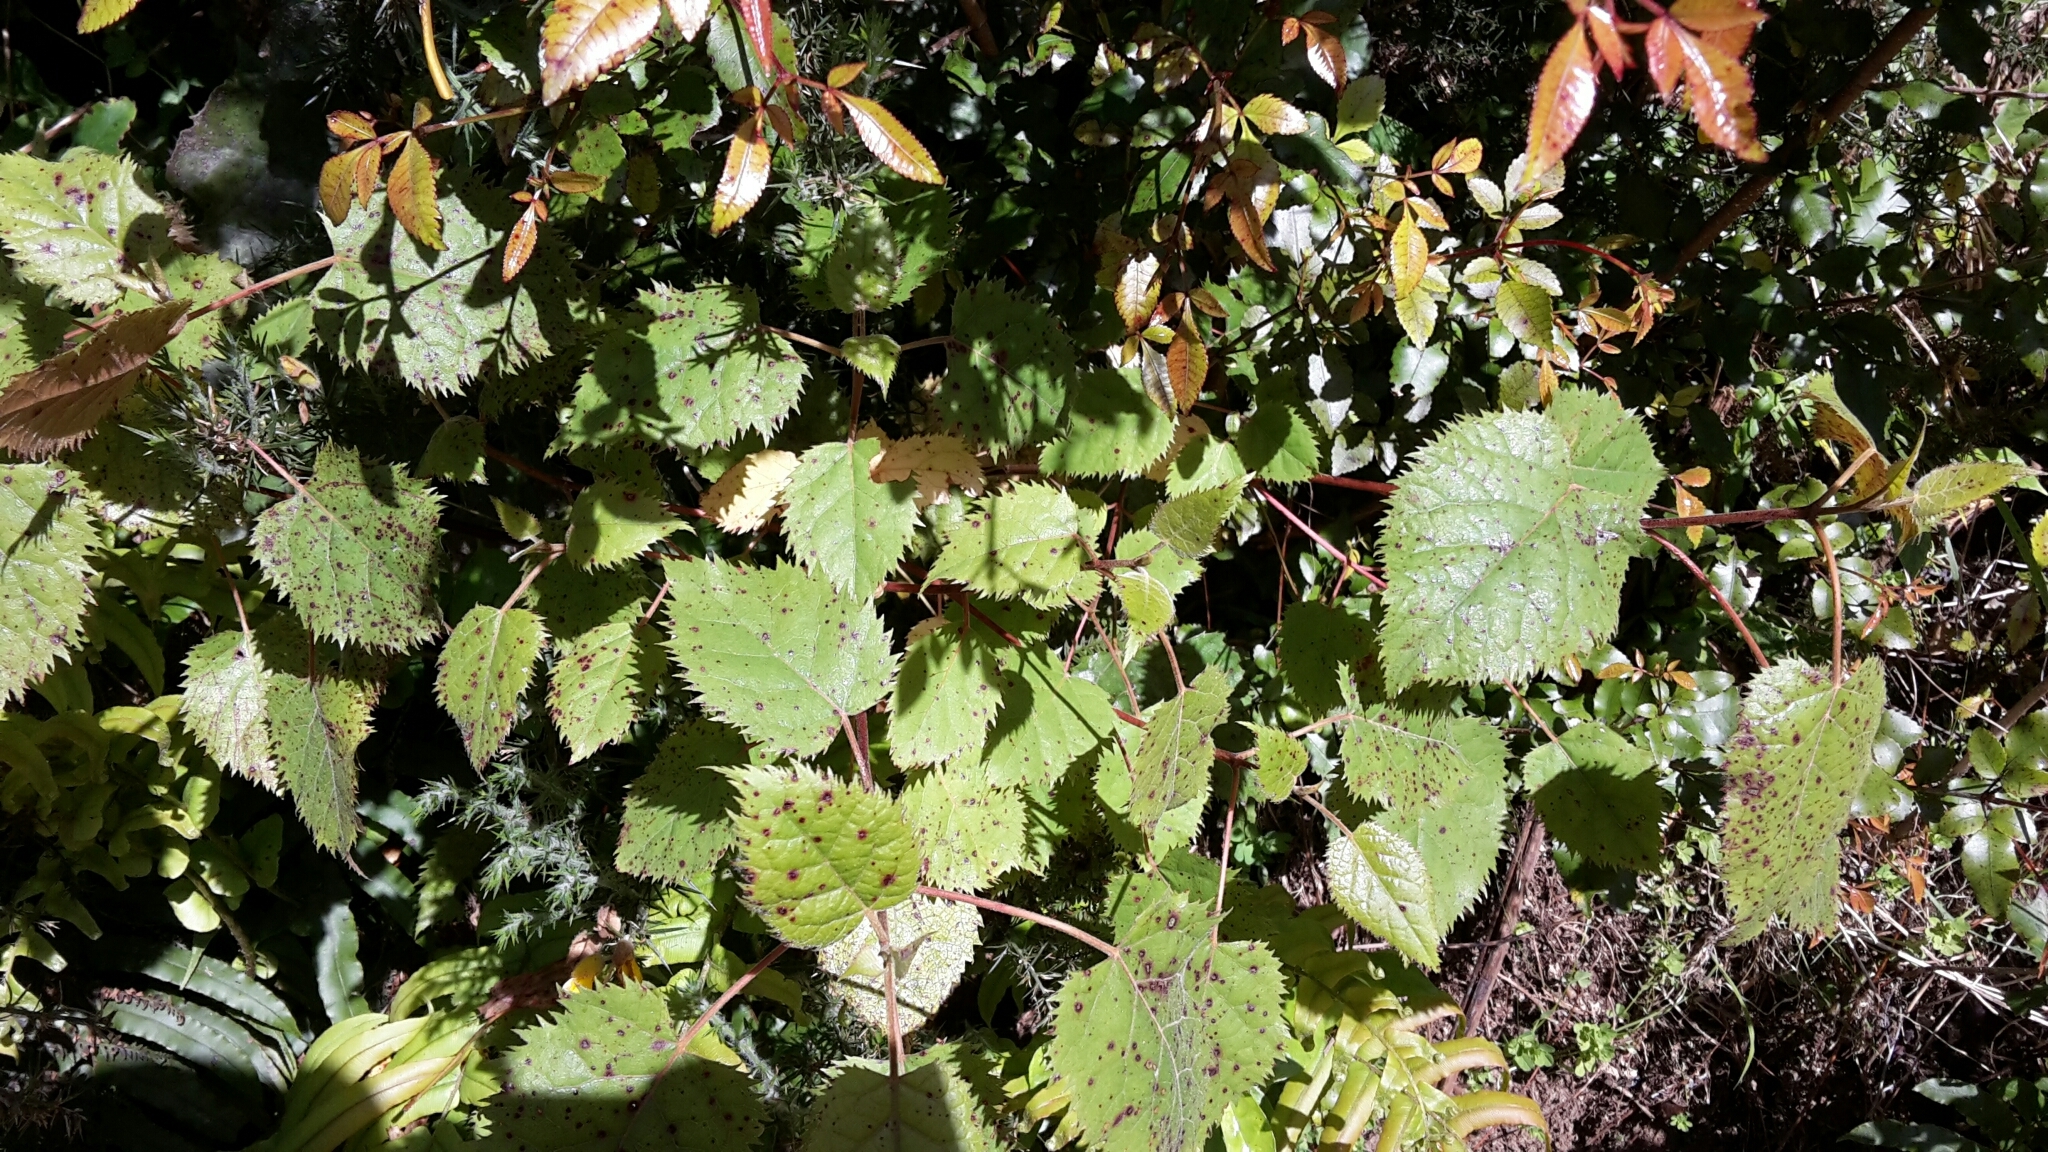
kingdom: Plantae
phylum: Tracheophyta
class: Magnoliopsida
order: Oxalidales
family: Elaeocarpaceae
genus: Aristotelia
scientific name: Aristotelia serrata
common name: New zealand wineberry
